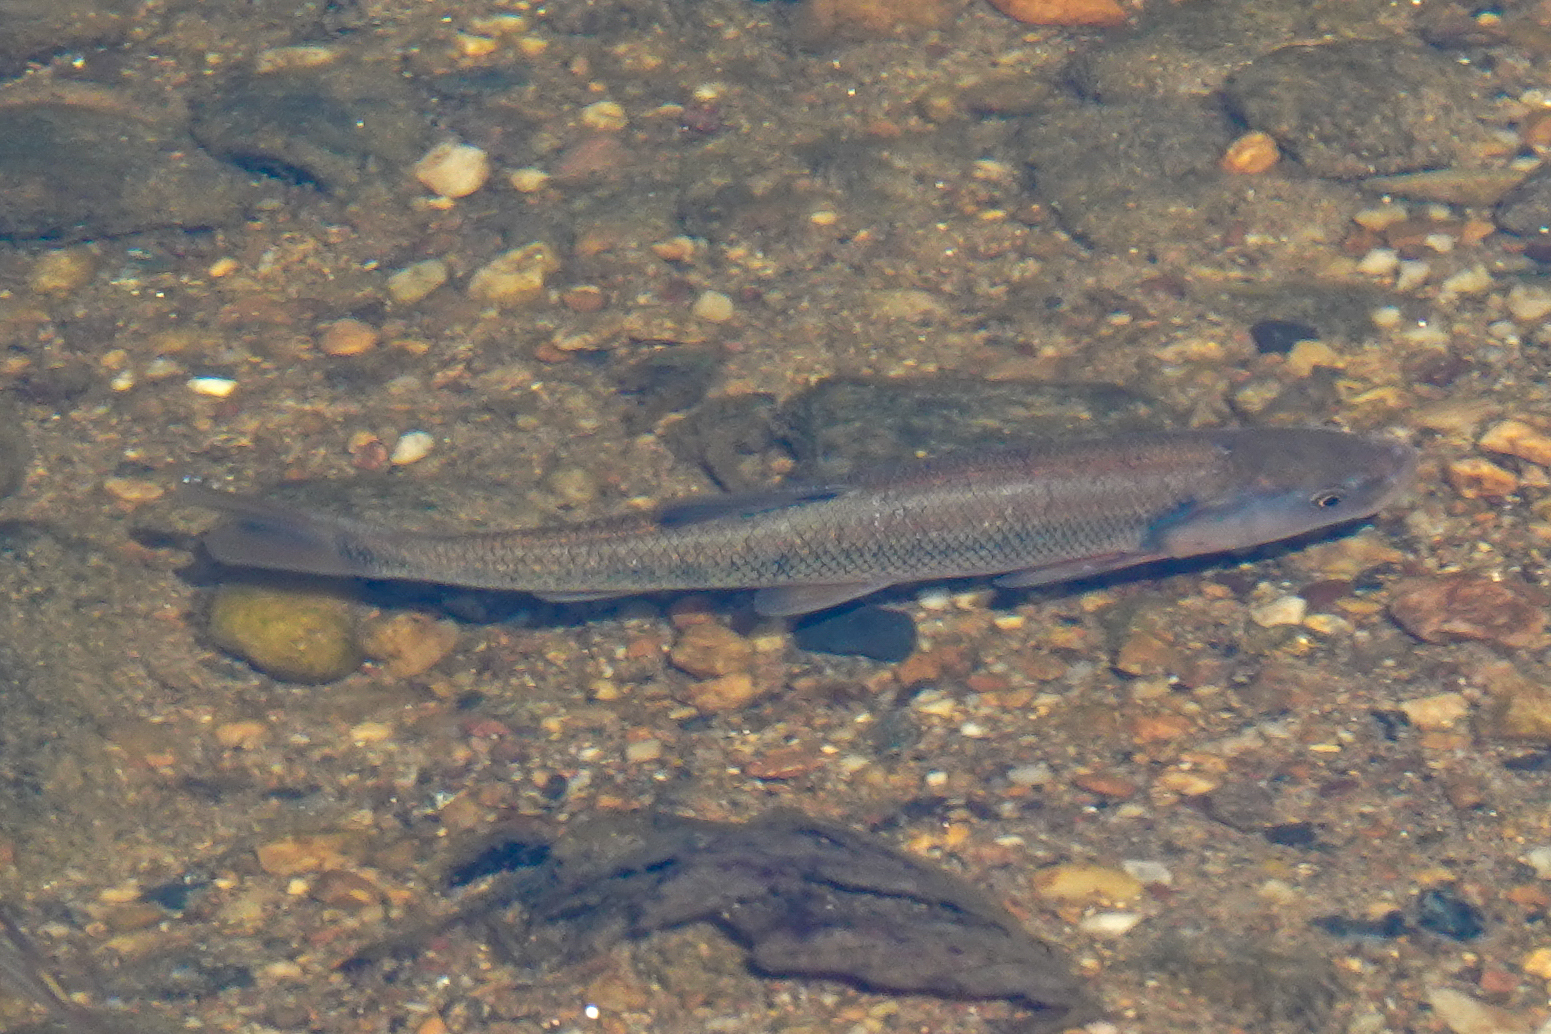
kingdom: Animalia
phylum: Chordata
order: Cypriniformes
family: Cyprinidae
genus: Semotilus
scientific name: Semotilus atromaculatus
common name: Creek chub
